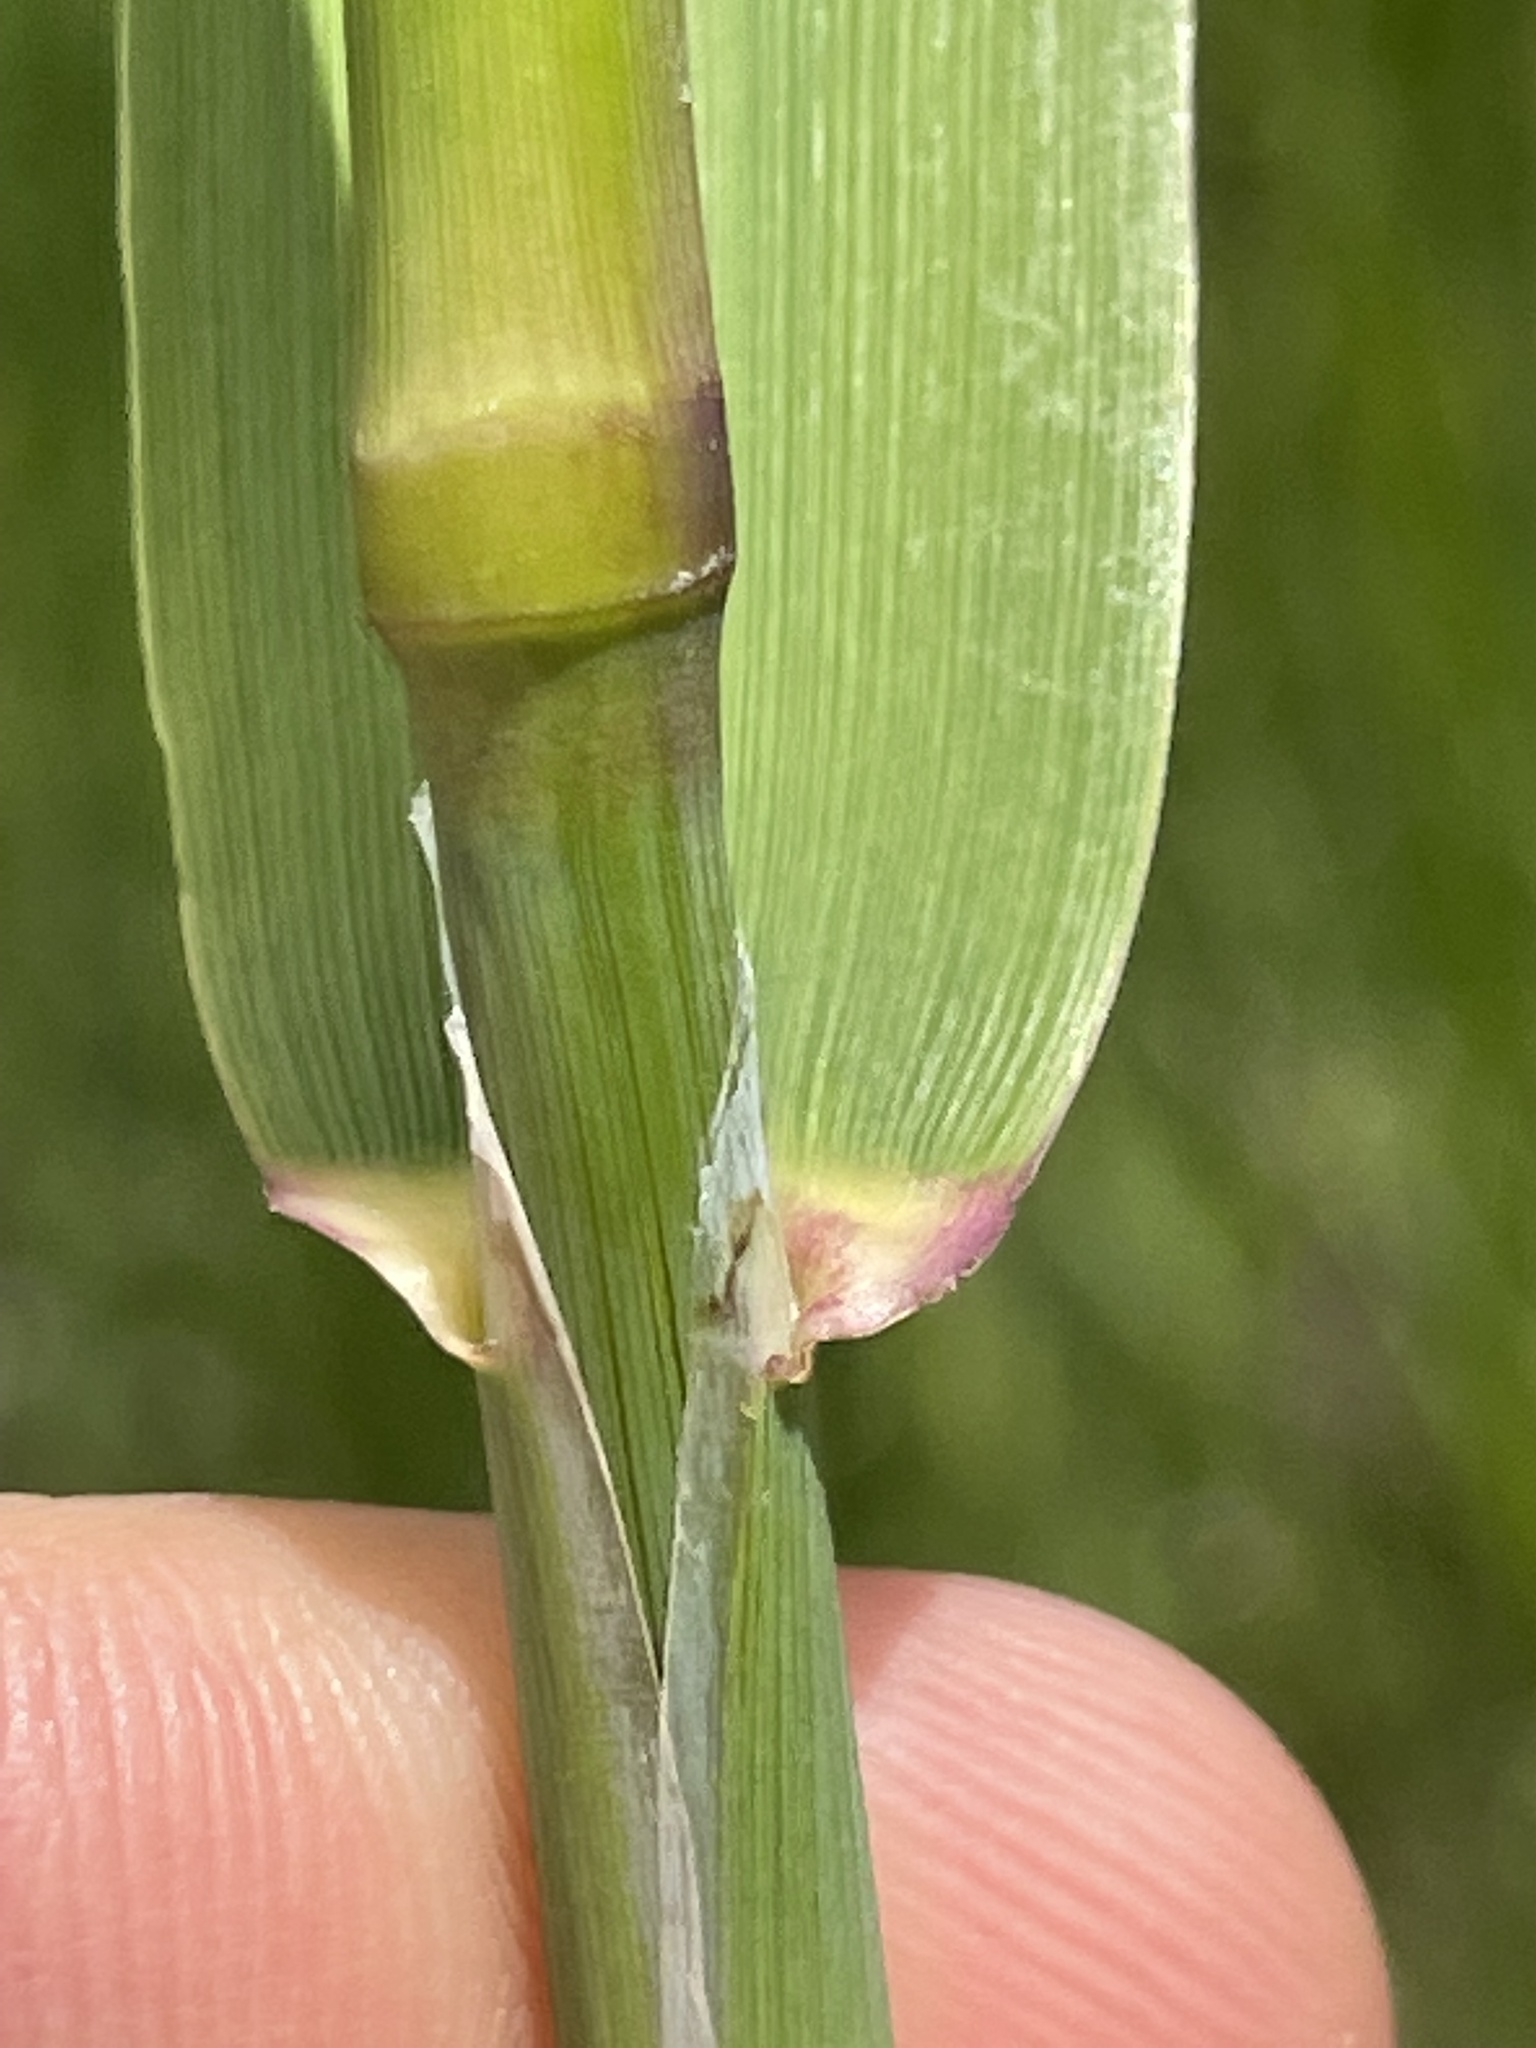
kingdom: Plantae
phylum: Tracheophyta
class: Liliopsida
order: Poales
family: Poaceae
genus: Phalaris
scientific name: Phalaris arundinacea
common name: Reed canary-grass
